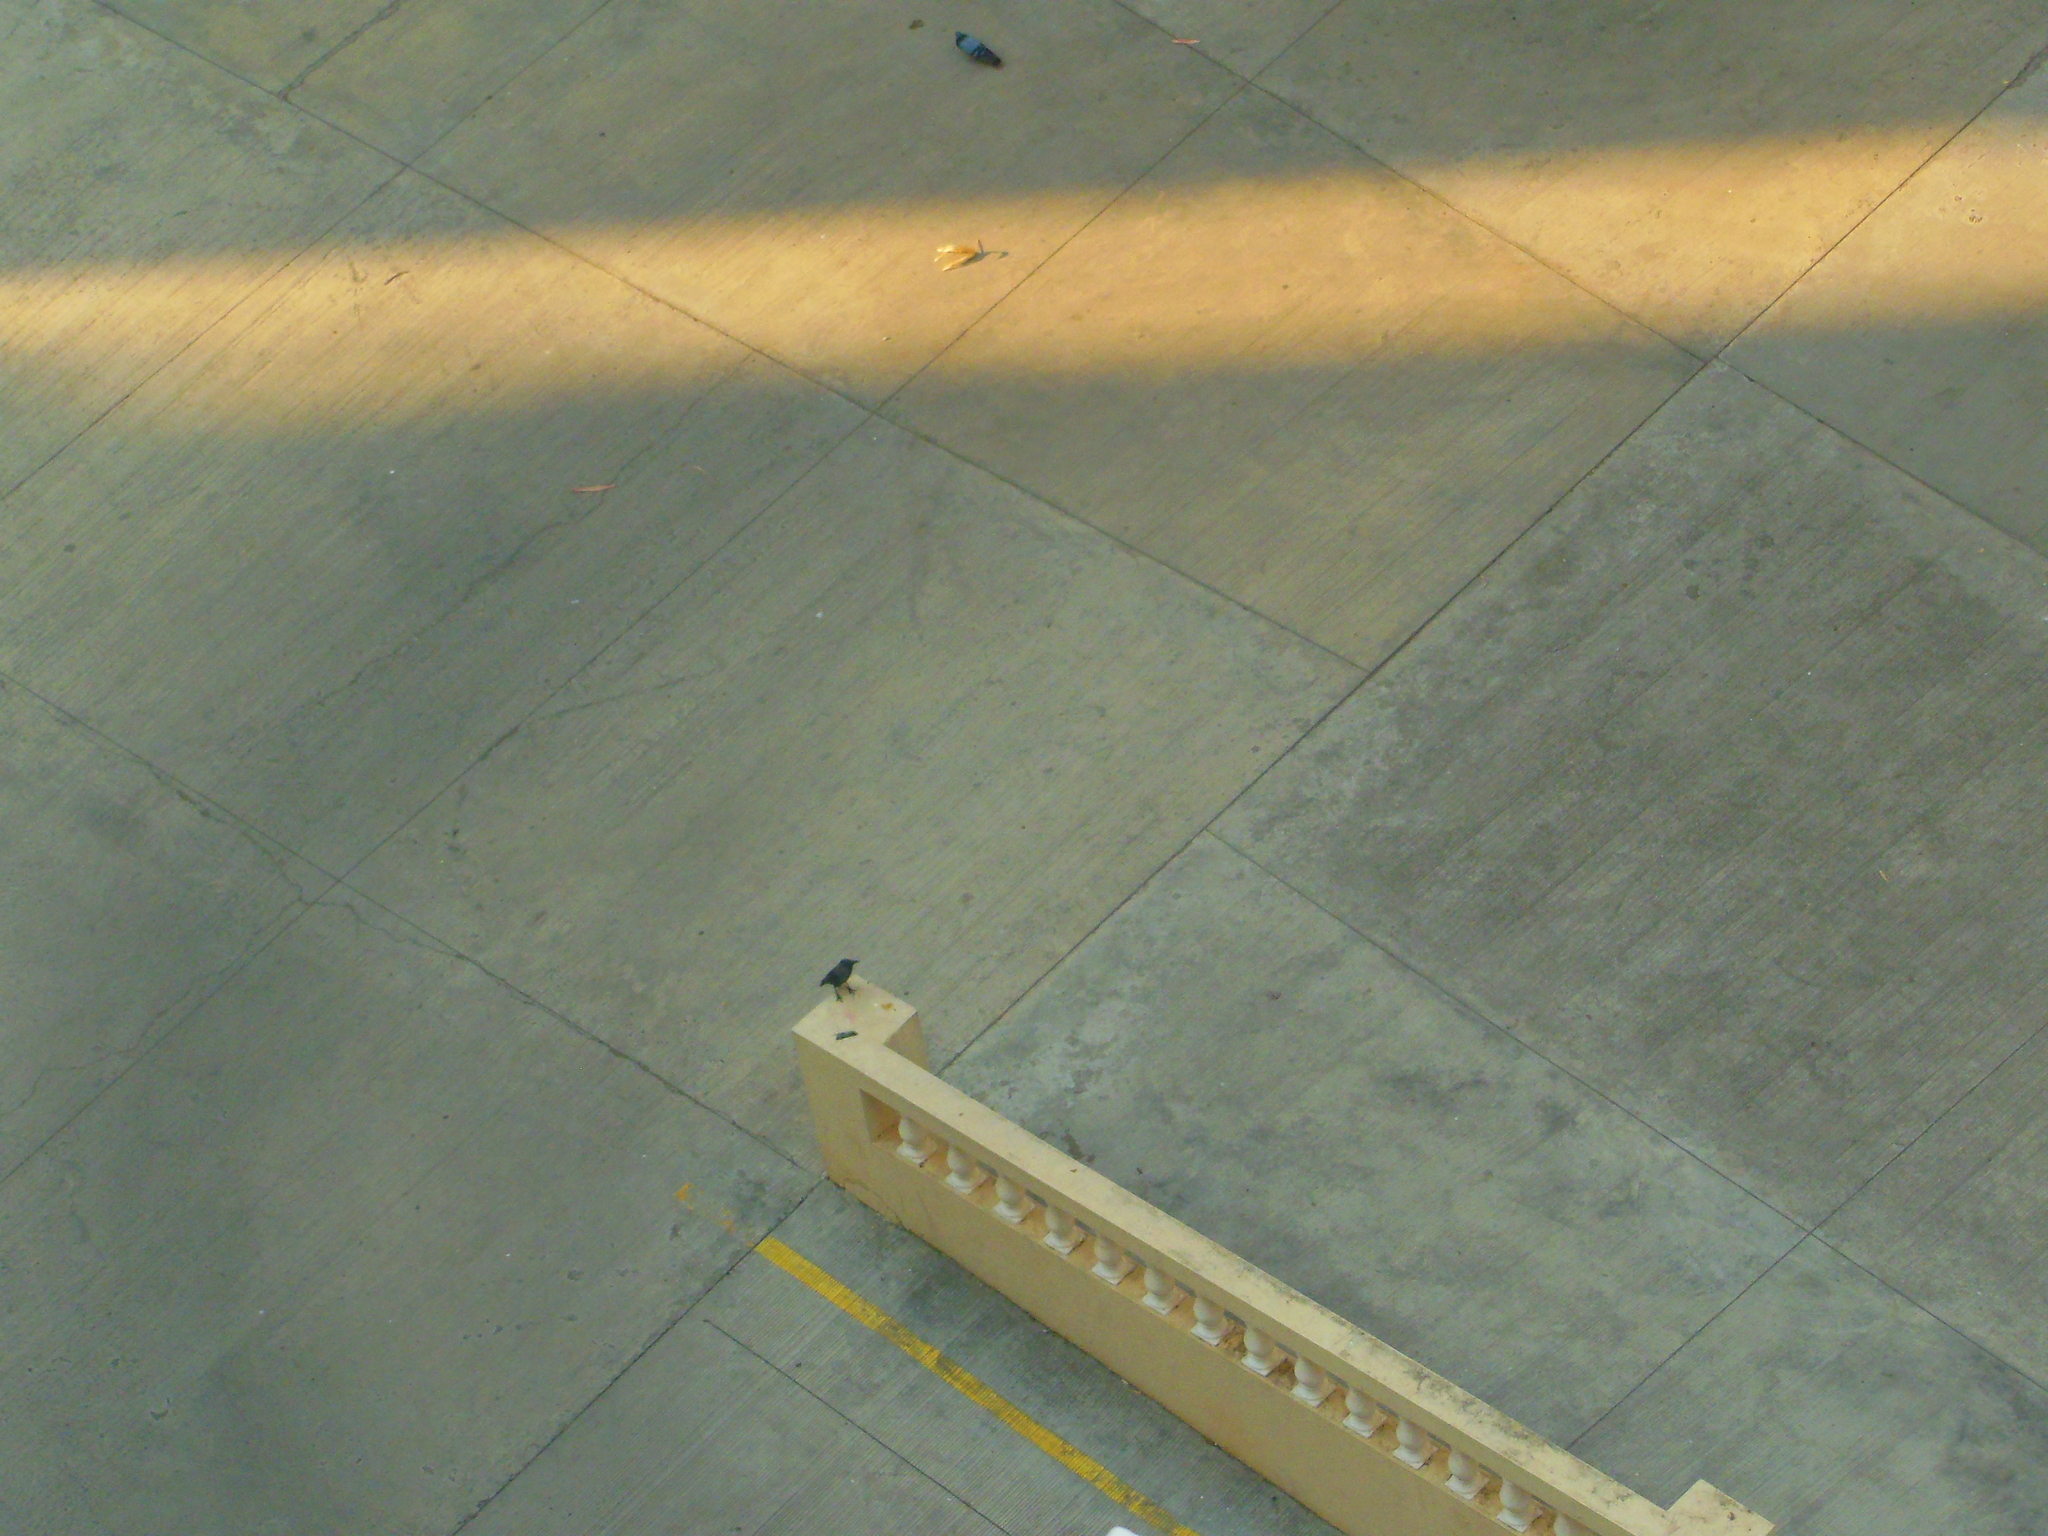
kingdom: Animalia
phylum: Chordata
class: Aves
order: Passeriformes
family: Corvidae
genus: Corvus
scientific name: Corvus splendens
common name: House crow
